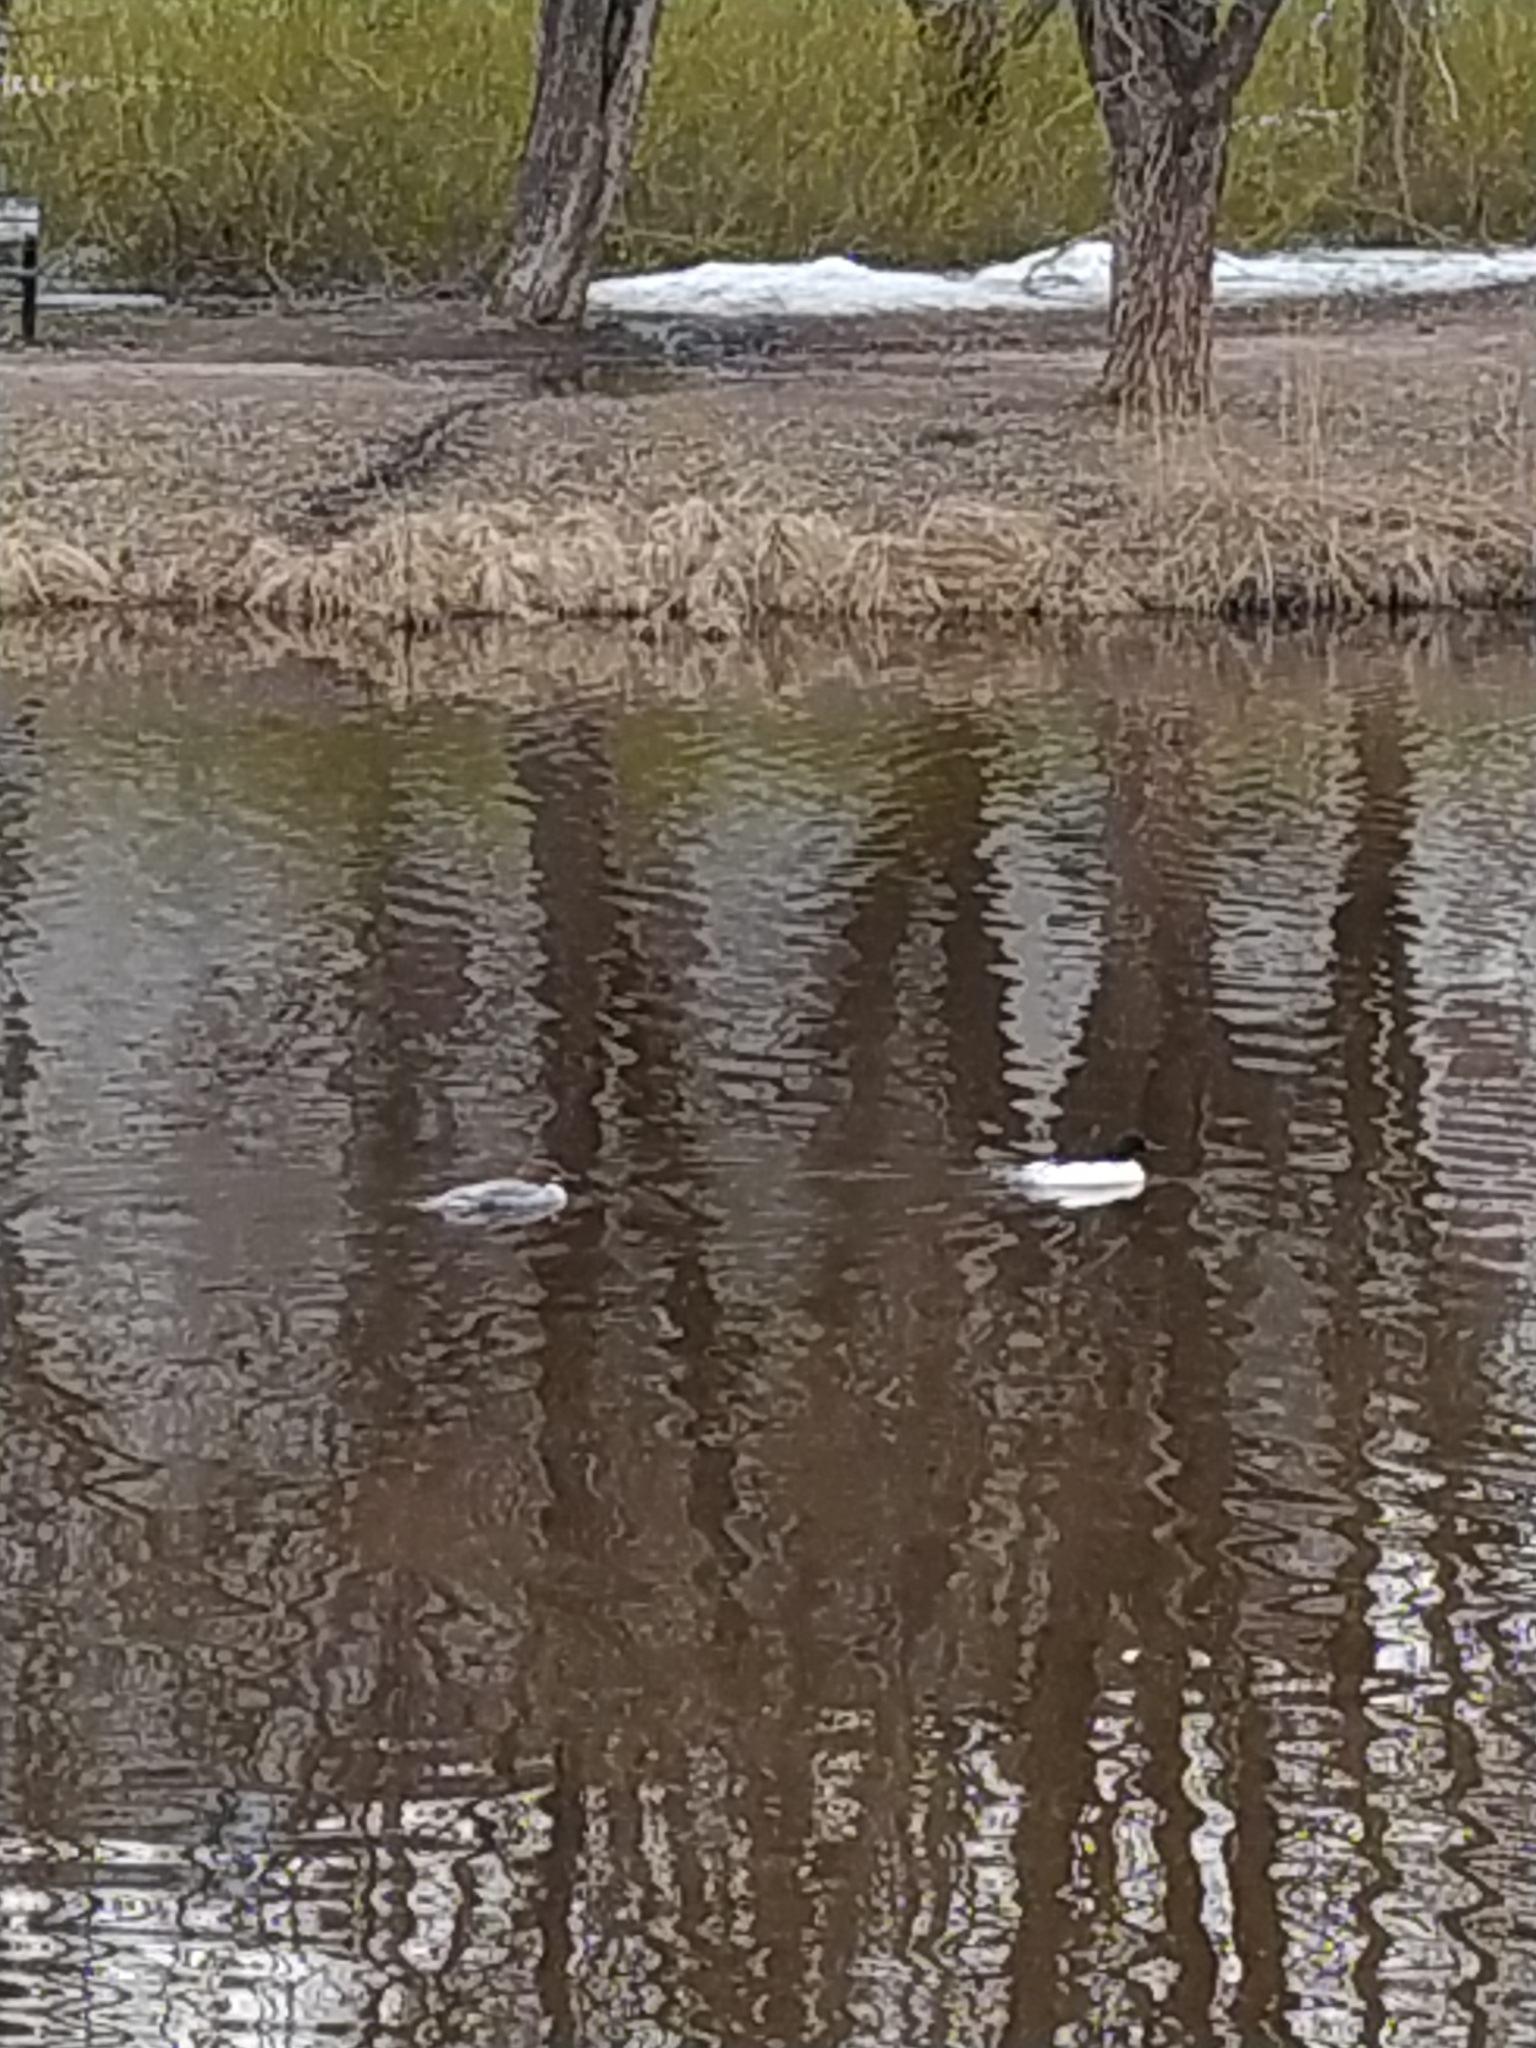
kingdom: Animalia
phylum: Chordata
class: Aves
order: Anseriformes
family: Anatidae
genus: Mergus
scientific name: Mergus merganser
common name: Common merganser
